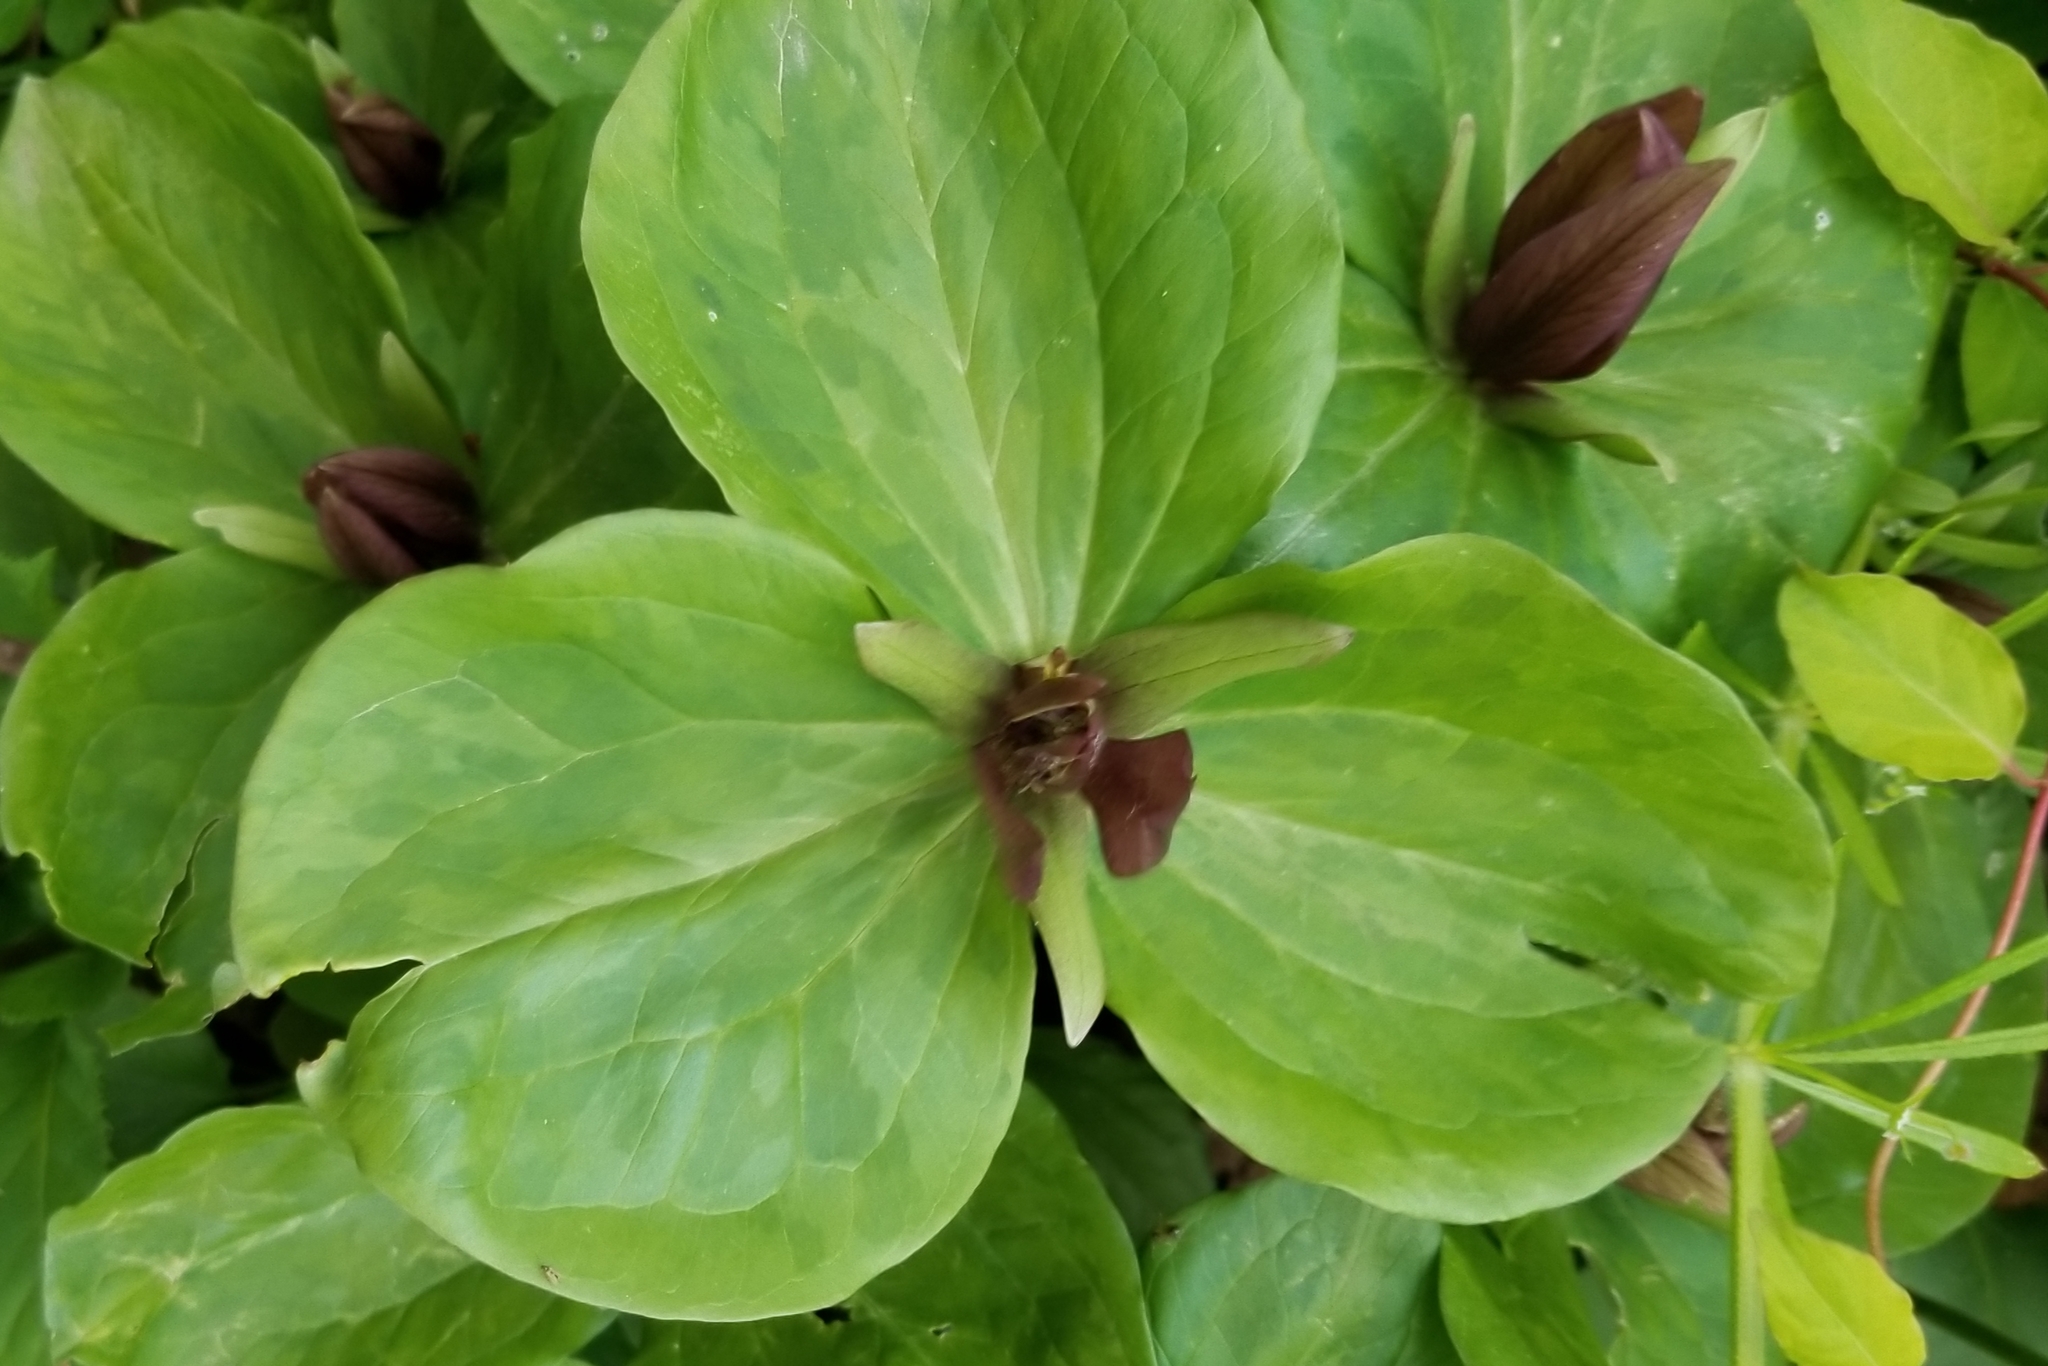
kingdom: Plantae
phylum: Tracheophyta
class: Liliopsida
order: Liliales
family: Melanthiaceae
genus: Trillium
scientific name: Trillium sessile
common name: Sessile trillium
